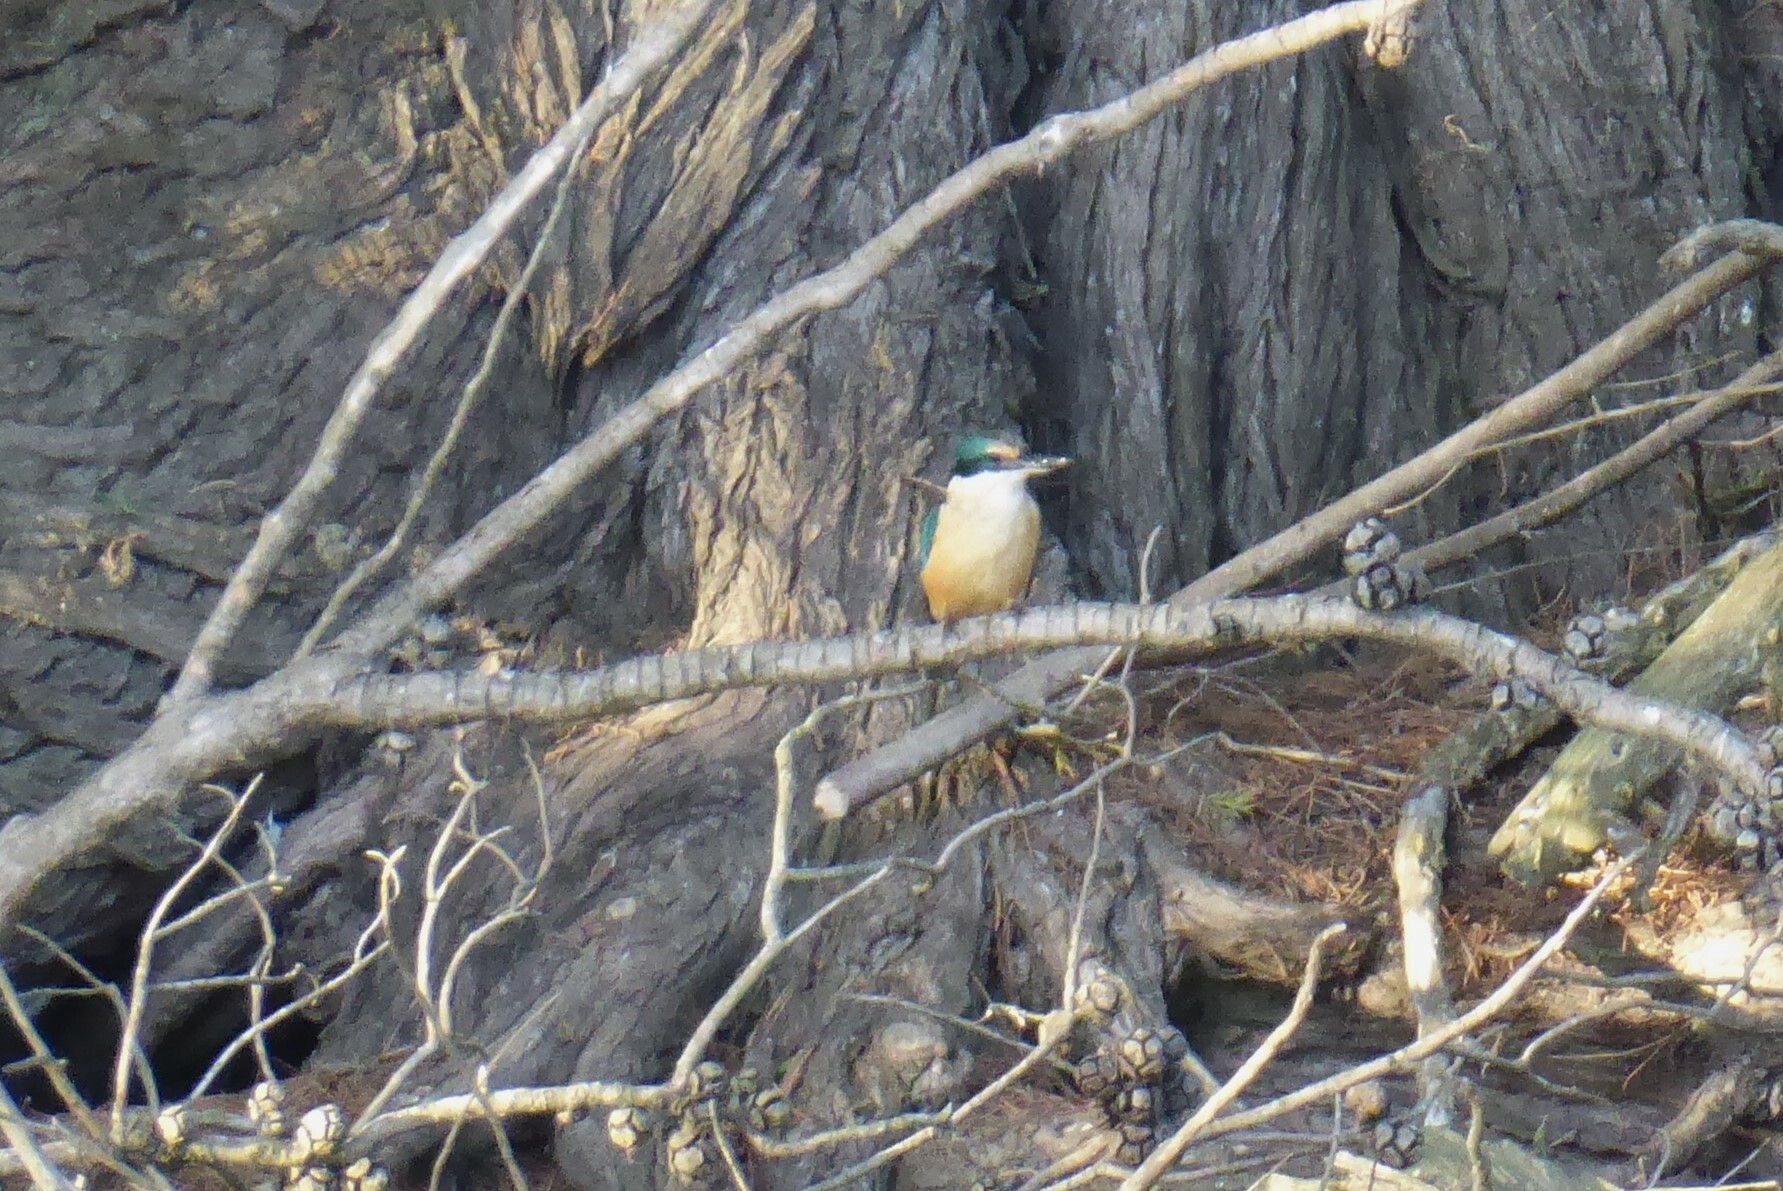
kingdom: Animalia
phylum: Chordata
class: Aves
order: Coraciiformes
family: Alcedinidae
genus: Todiramphus
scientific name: Todiramphus sanctus
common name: Sacred kingfisher
